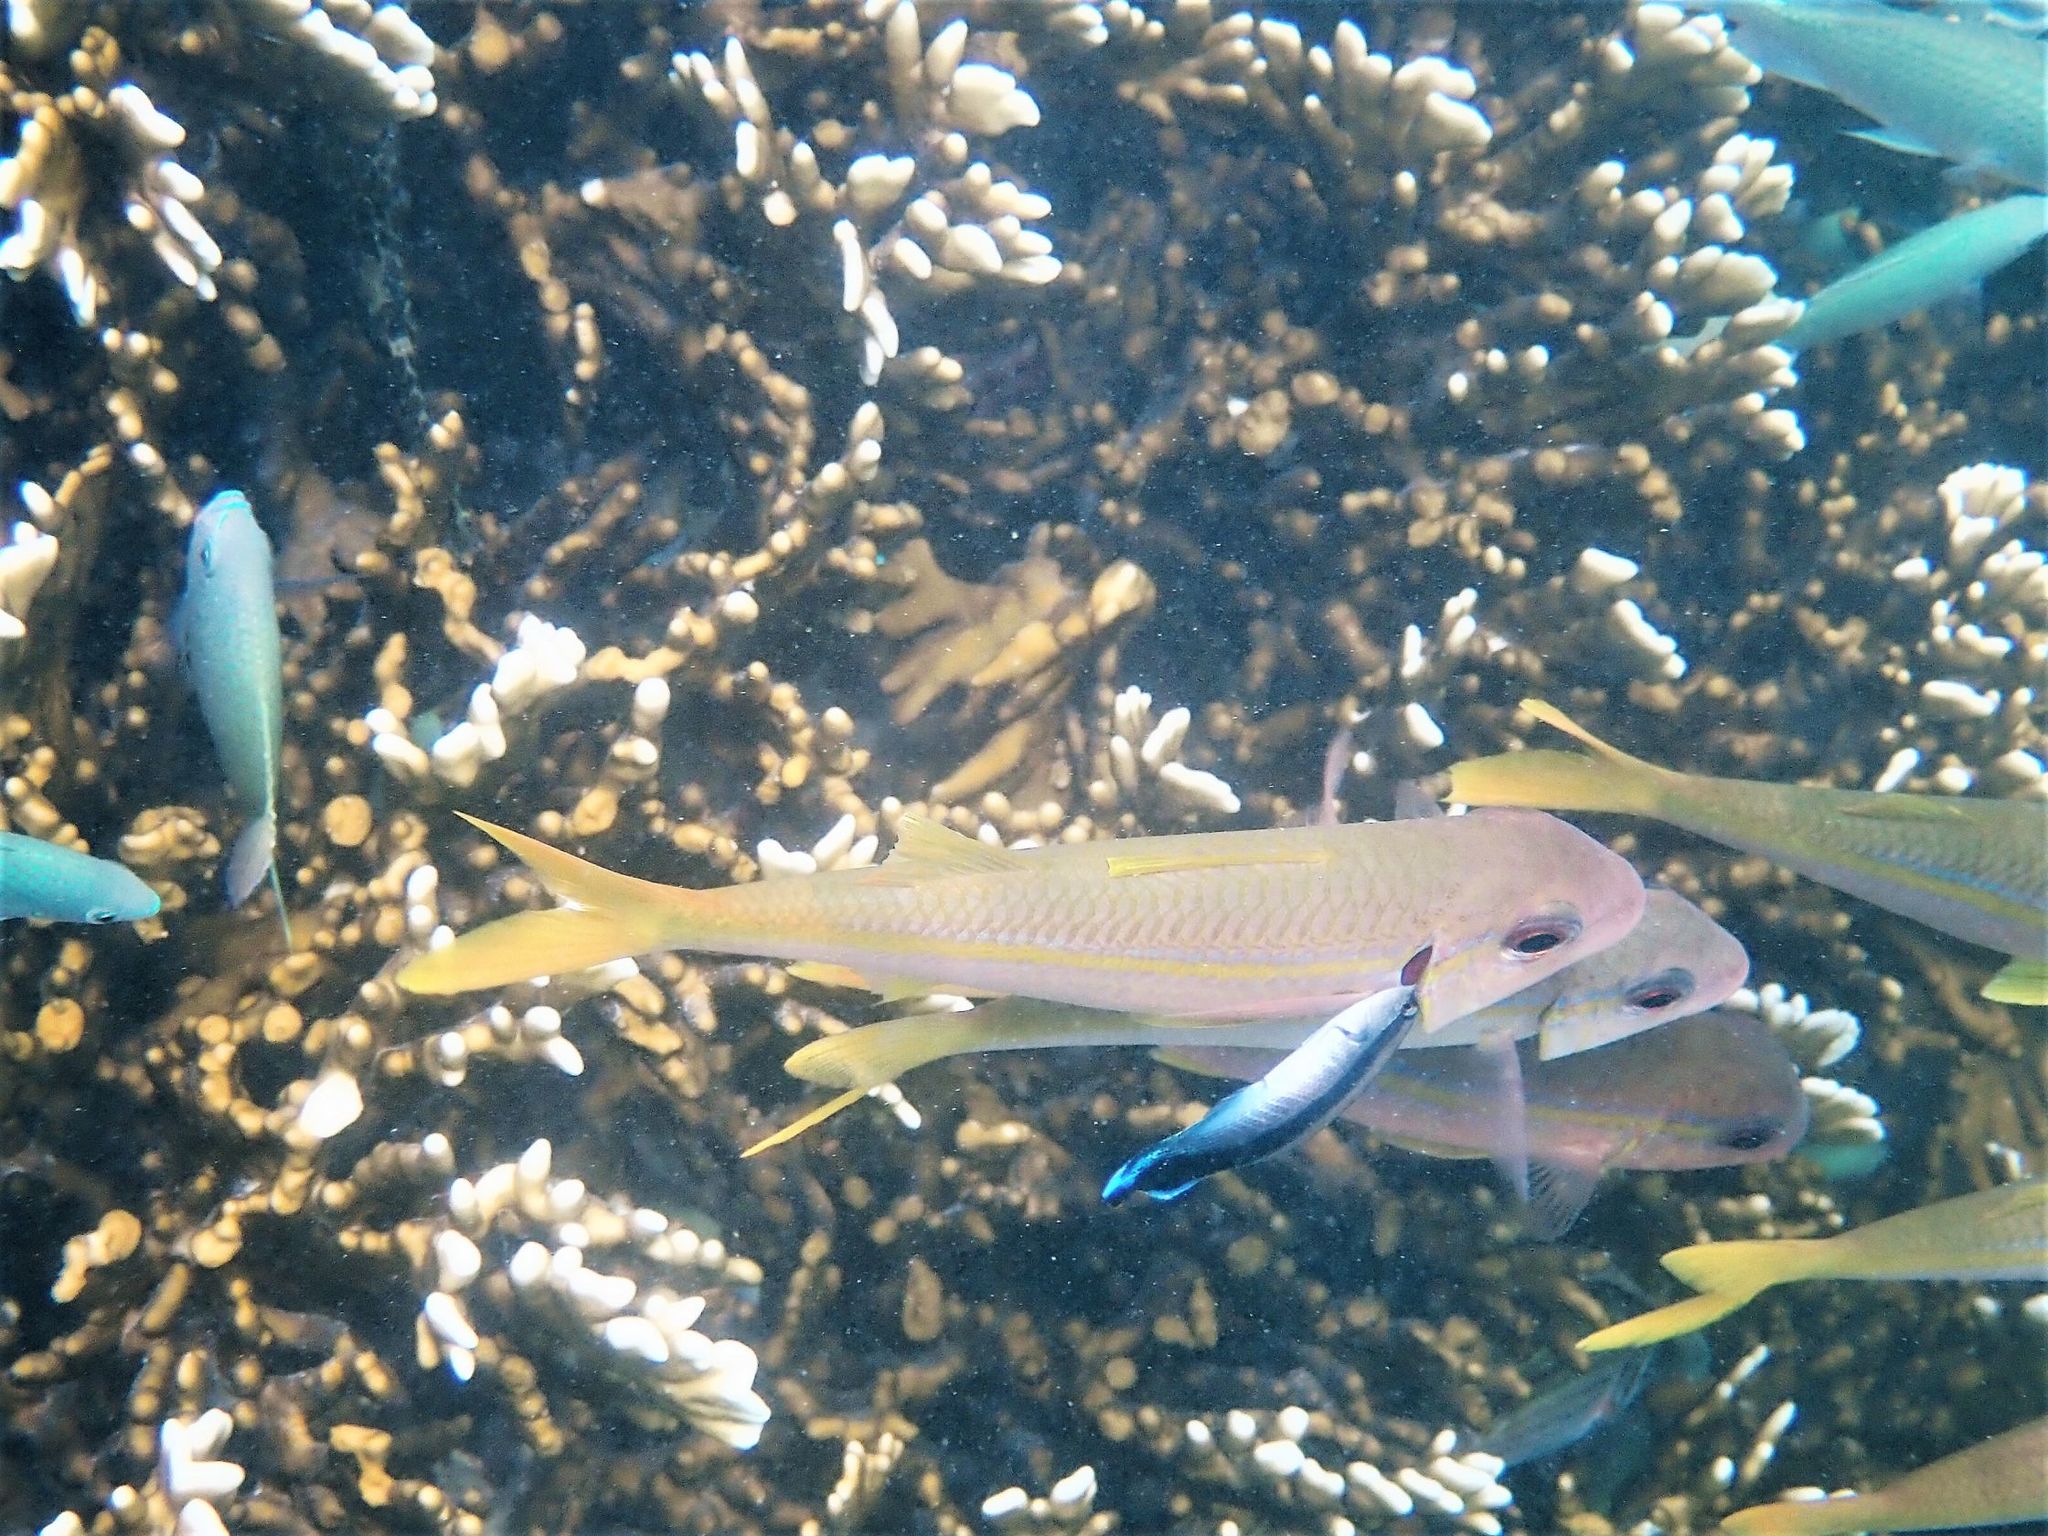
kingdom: Animalia
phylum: Chordata
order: Perciformes
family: Mullidae
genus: Mulloidichthys
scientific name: Mulloidichthys vanicolensis
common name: Yellowfin goatfish
